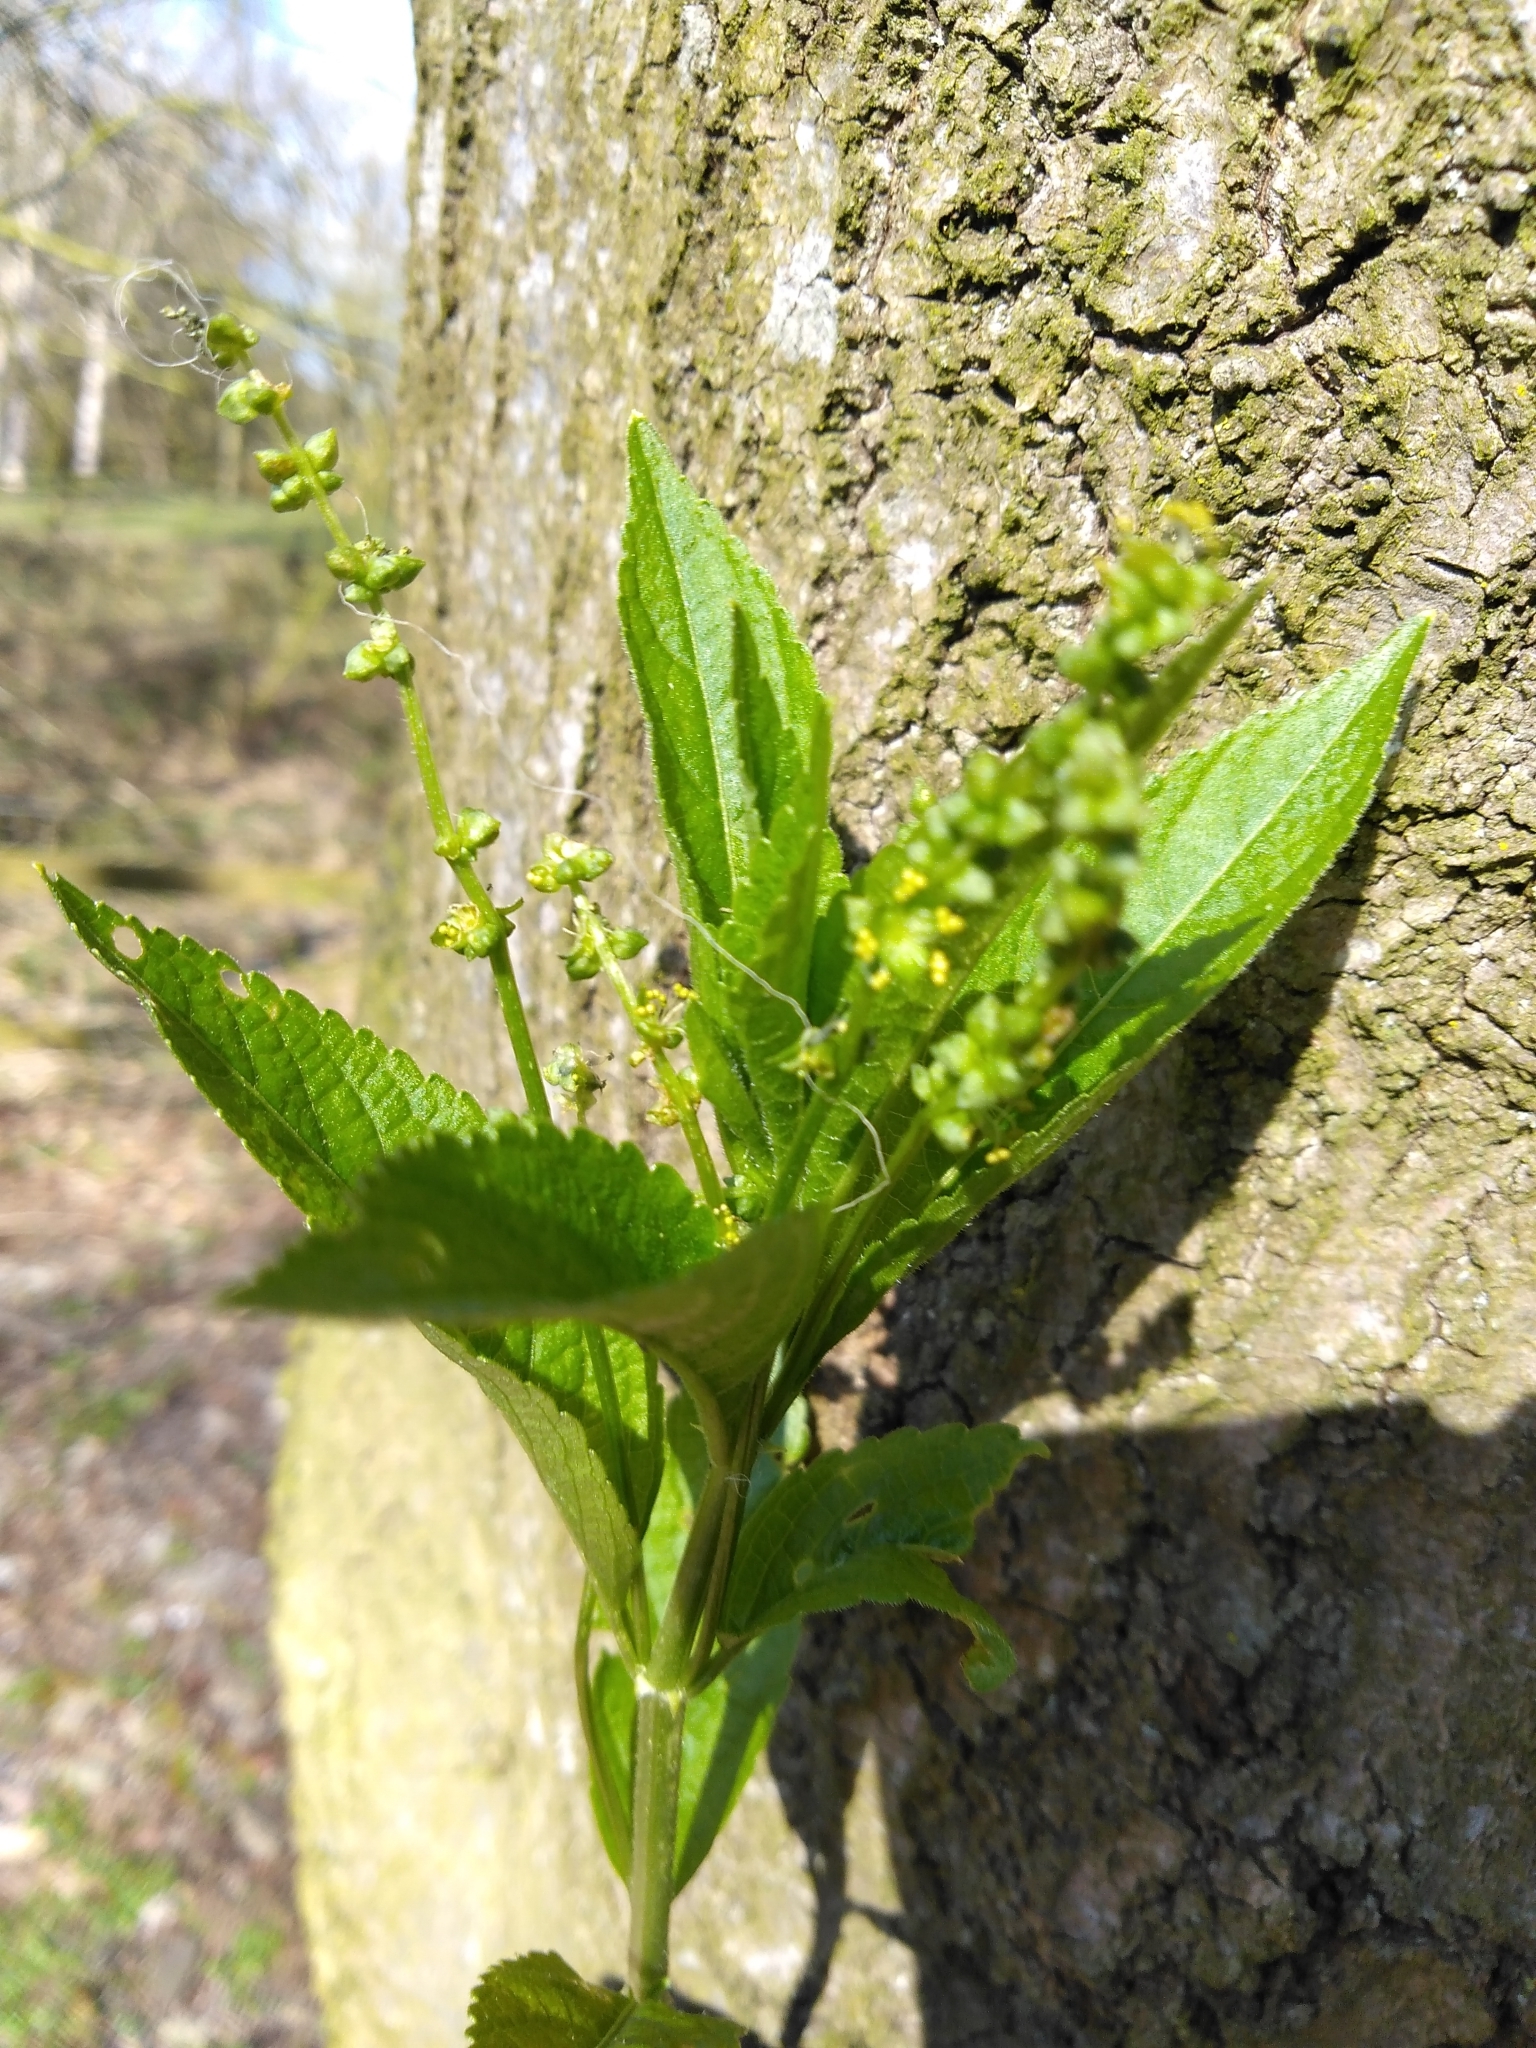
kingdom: Plantae
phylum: Tracheophyta
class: Magnoliopsida
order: Malpighiales
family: Euphorbiaceae
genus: Mercurialis
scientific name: Mercurialis perennis
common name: Dog mercury
